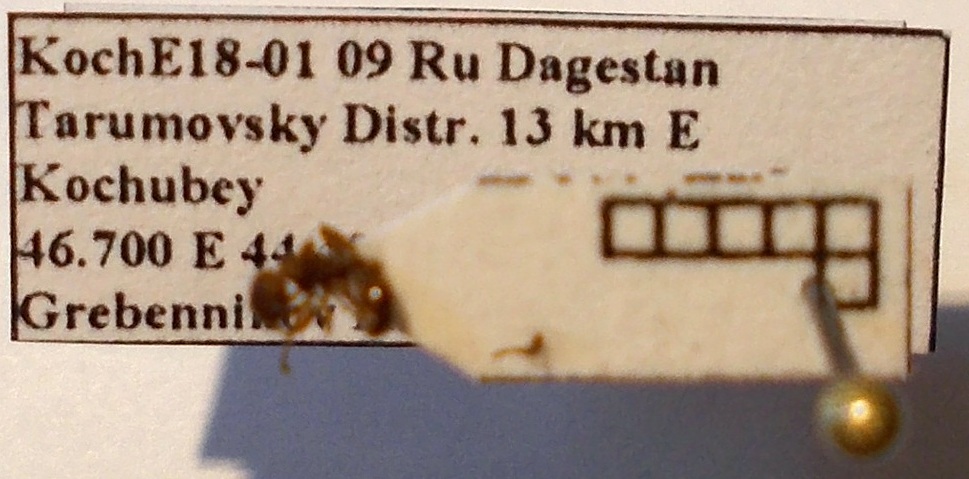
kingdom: Animalia
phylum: Arthropoda
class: Insecta
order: Hymenoptera
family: Formicidae
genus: Myrmica
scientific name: Myrmica scabrinodis
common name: Ant
